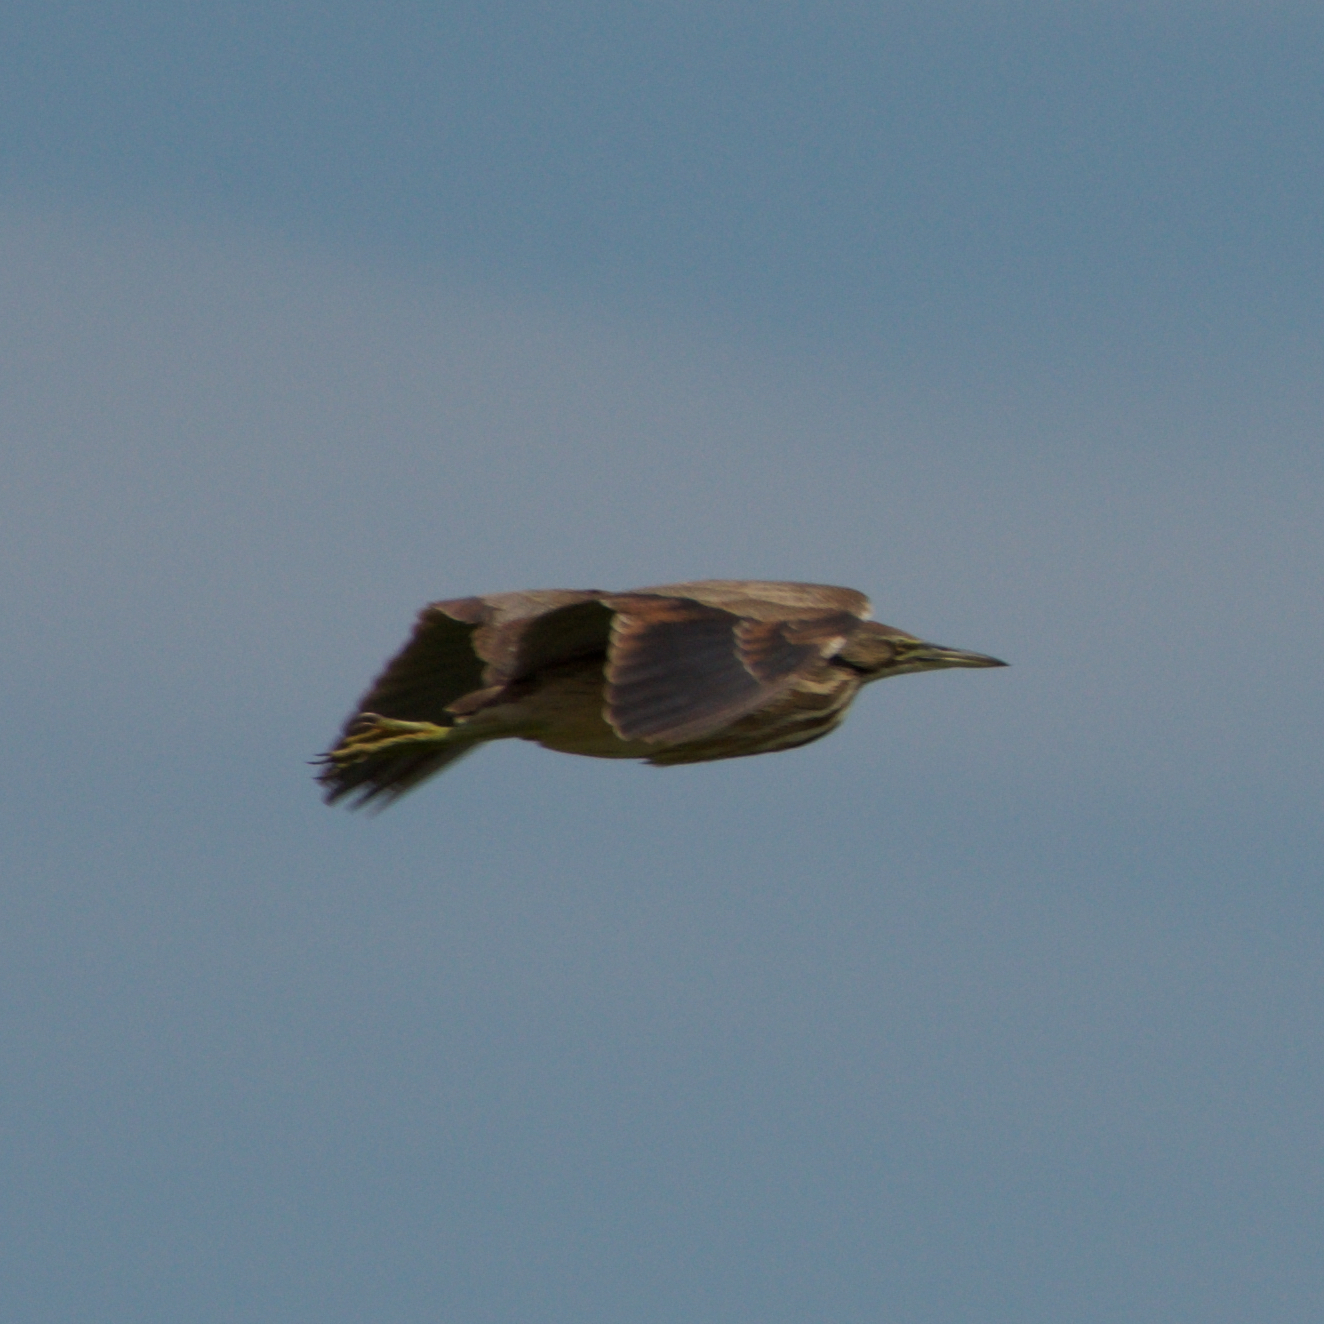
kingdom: Animalia
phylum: Chordata
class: Aves
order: Pelecaniformes
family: Ardeidae
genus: Botaurus
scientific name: Botaurus lentiginosus
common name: American bittern
